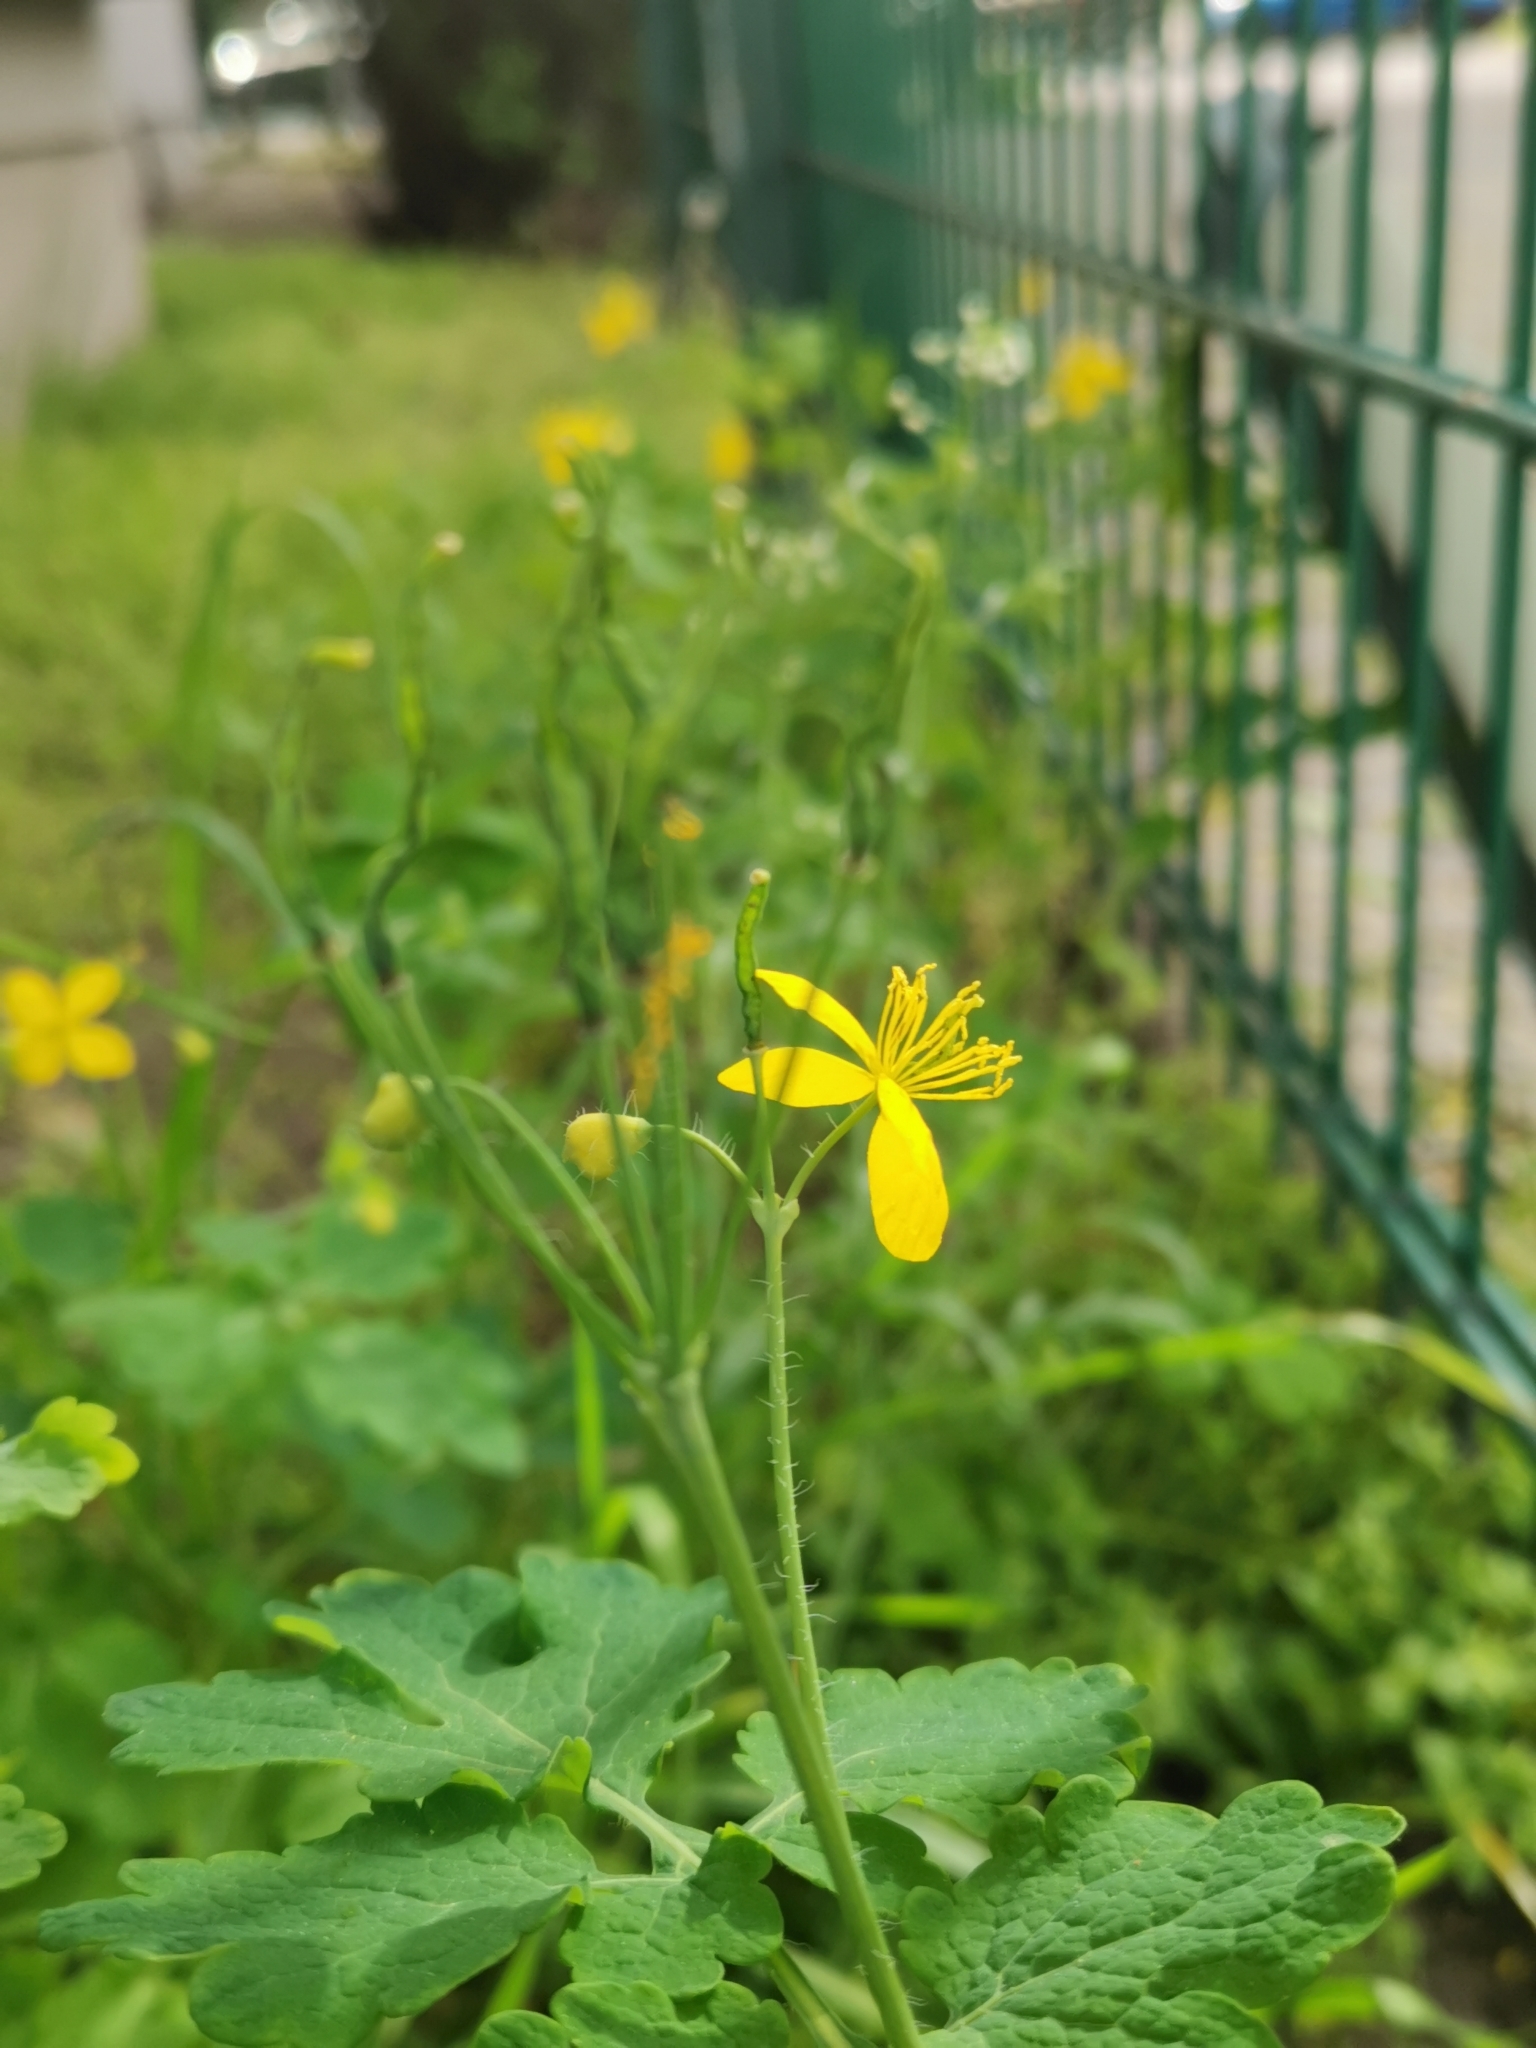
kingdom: Plantae
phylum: Tracheophyta
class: Magnoliopsida
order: Ranunculales
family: Papaveraceae
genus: Chelidonium
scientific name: Chelidonium majus
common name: Greater celandine
